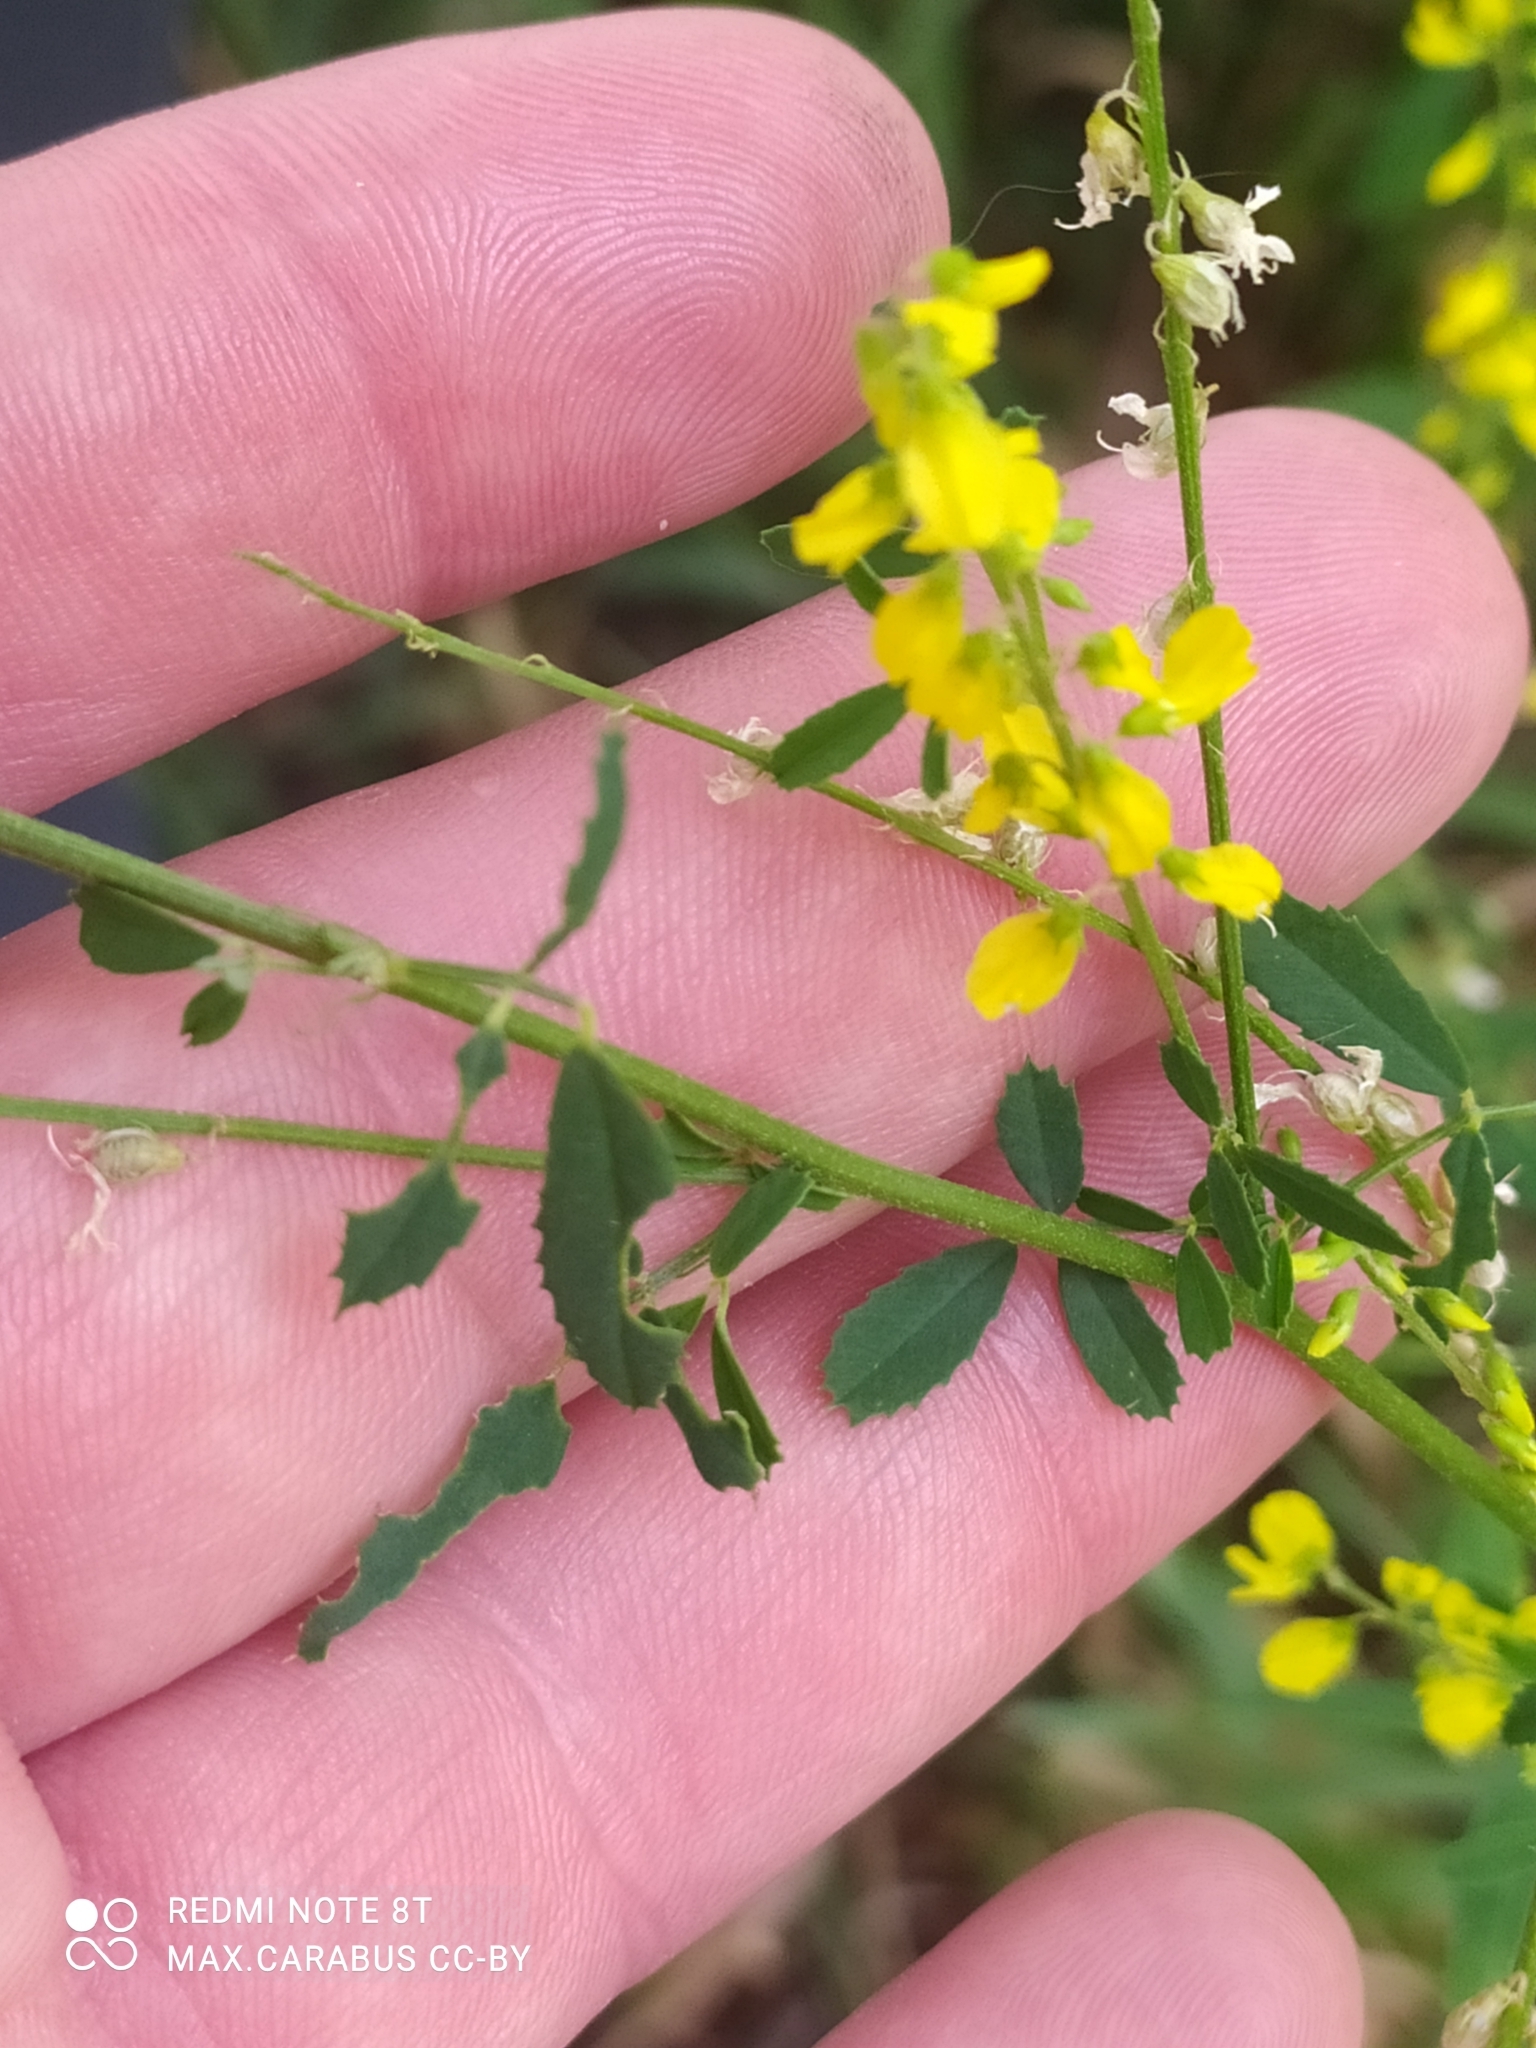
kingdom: Plantae
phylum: Tracheophyta
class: Magnoliopsida
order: Fabales
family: Fabaceae
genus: Melilotus
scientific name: Melilotus officinalis
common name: Sweetclover
